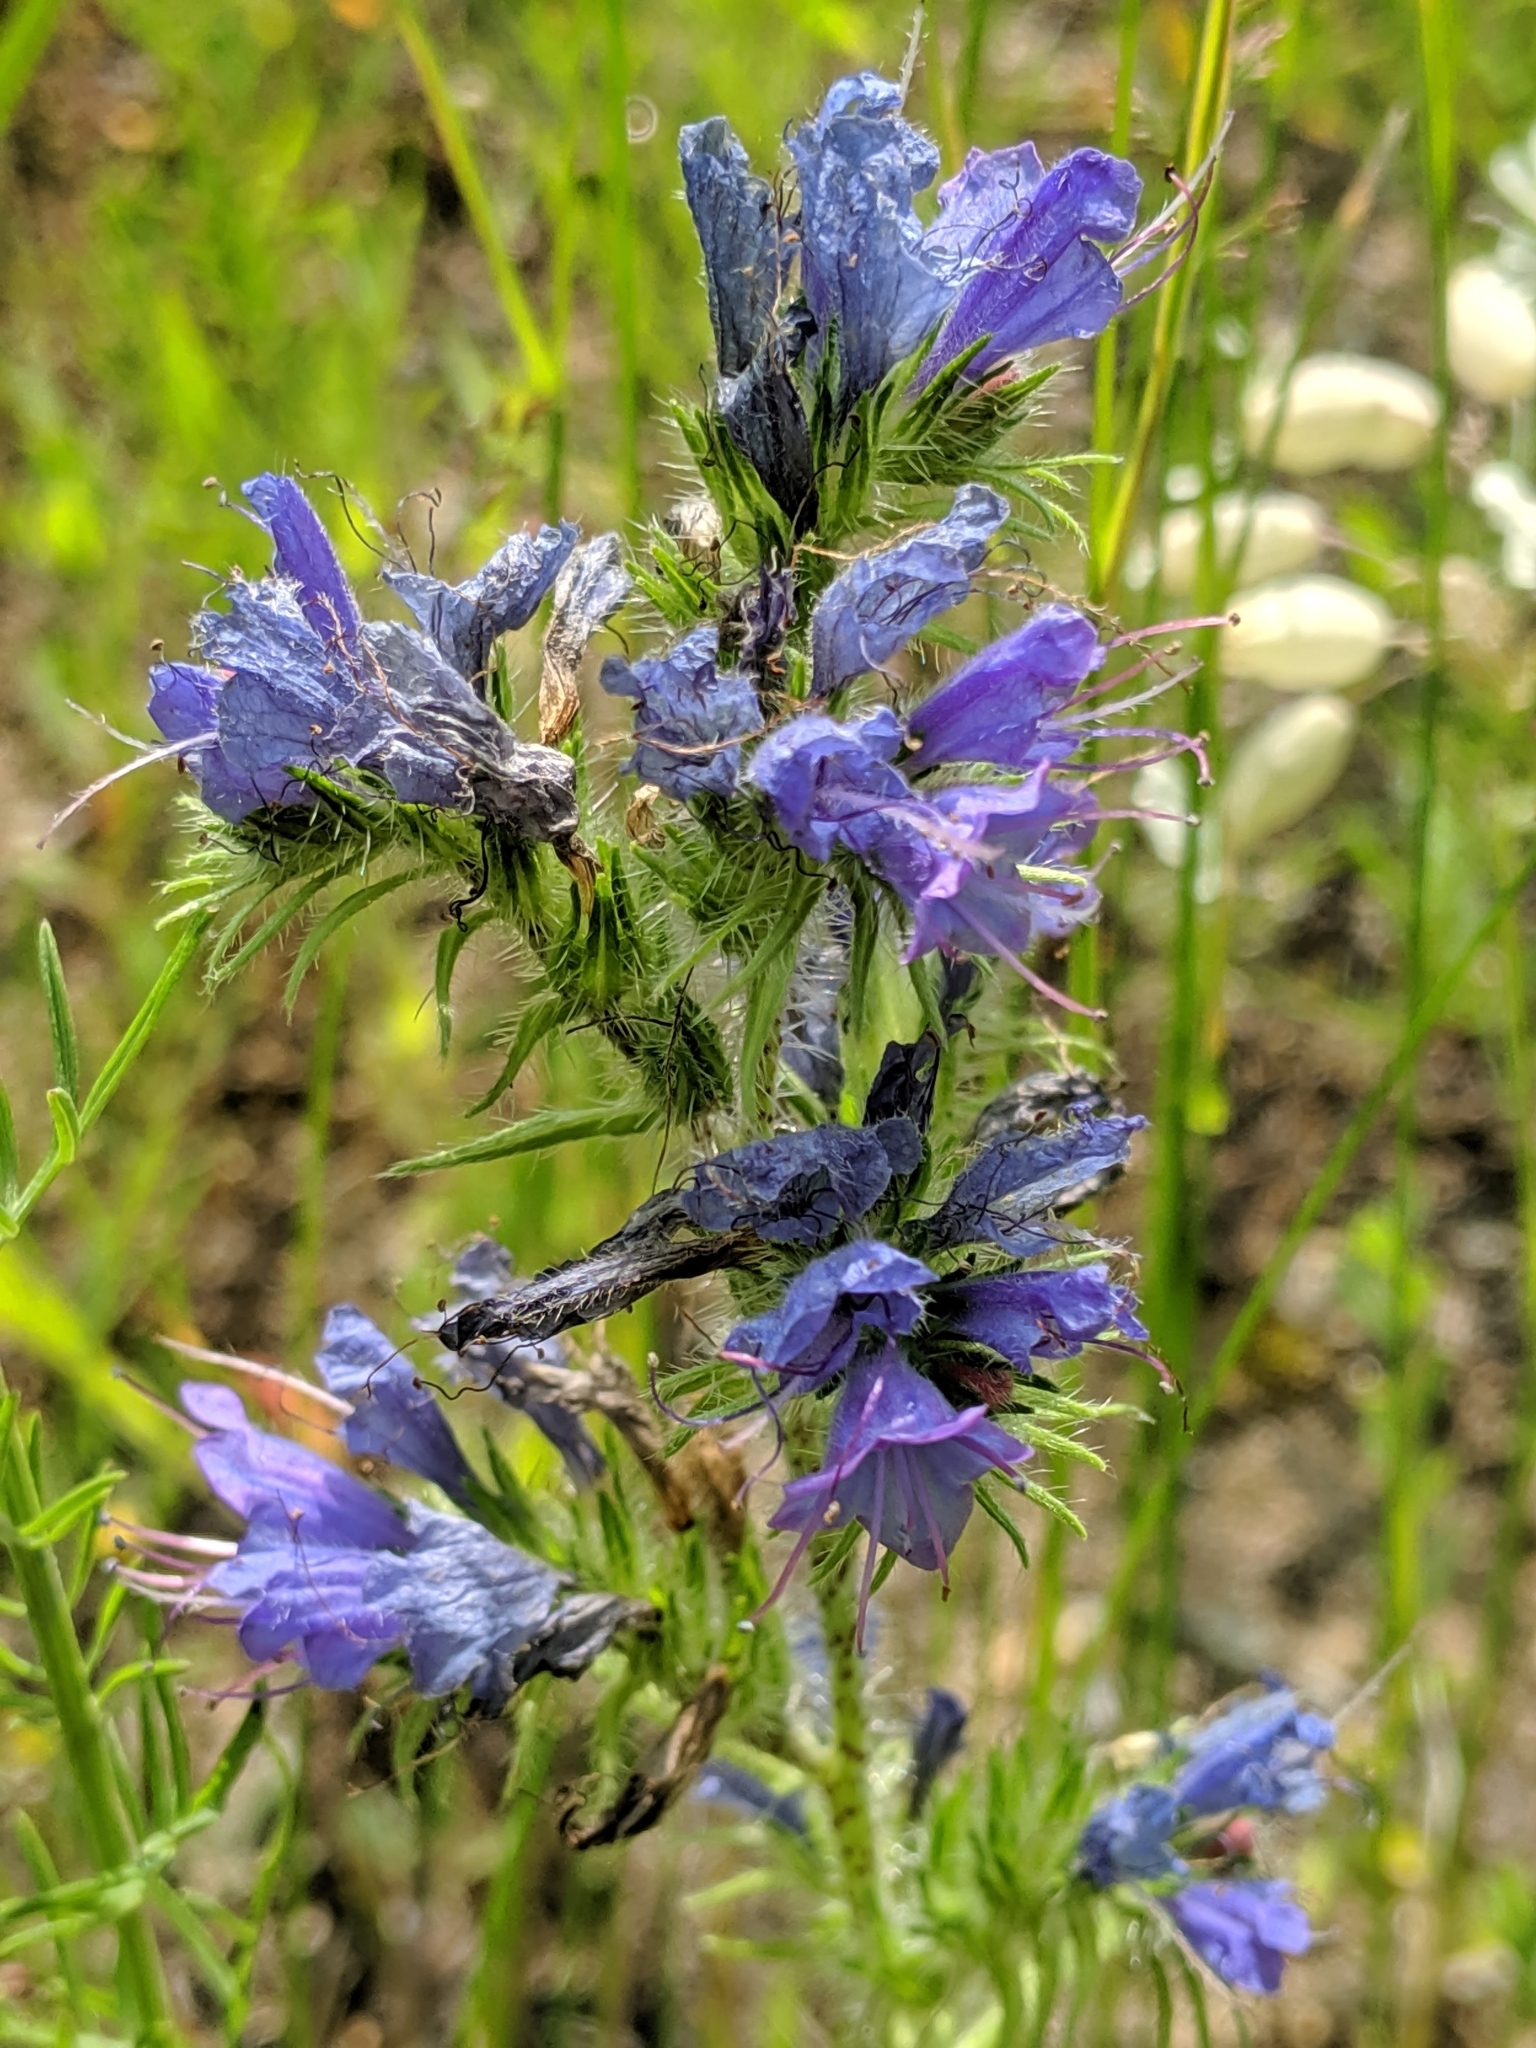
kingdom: Plantae
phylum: Tracheophyta
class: Magnoliopsida
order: Boraginales
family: Boraginaceae
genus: Echium
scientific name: Echium vulgare
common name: Common viper's bugloss
